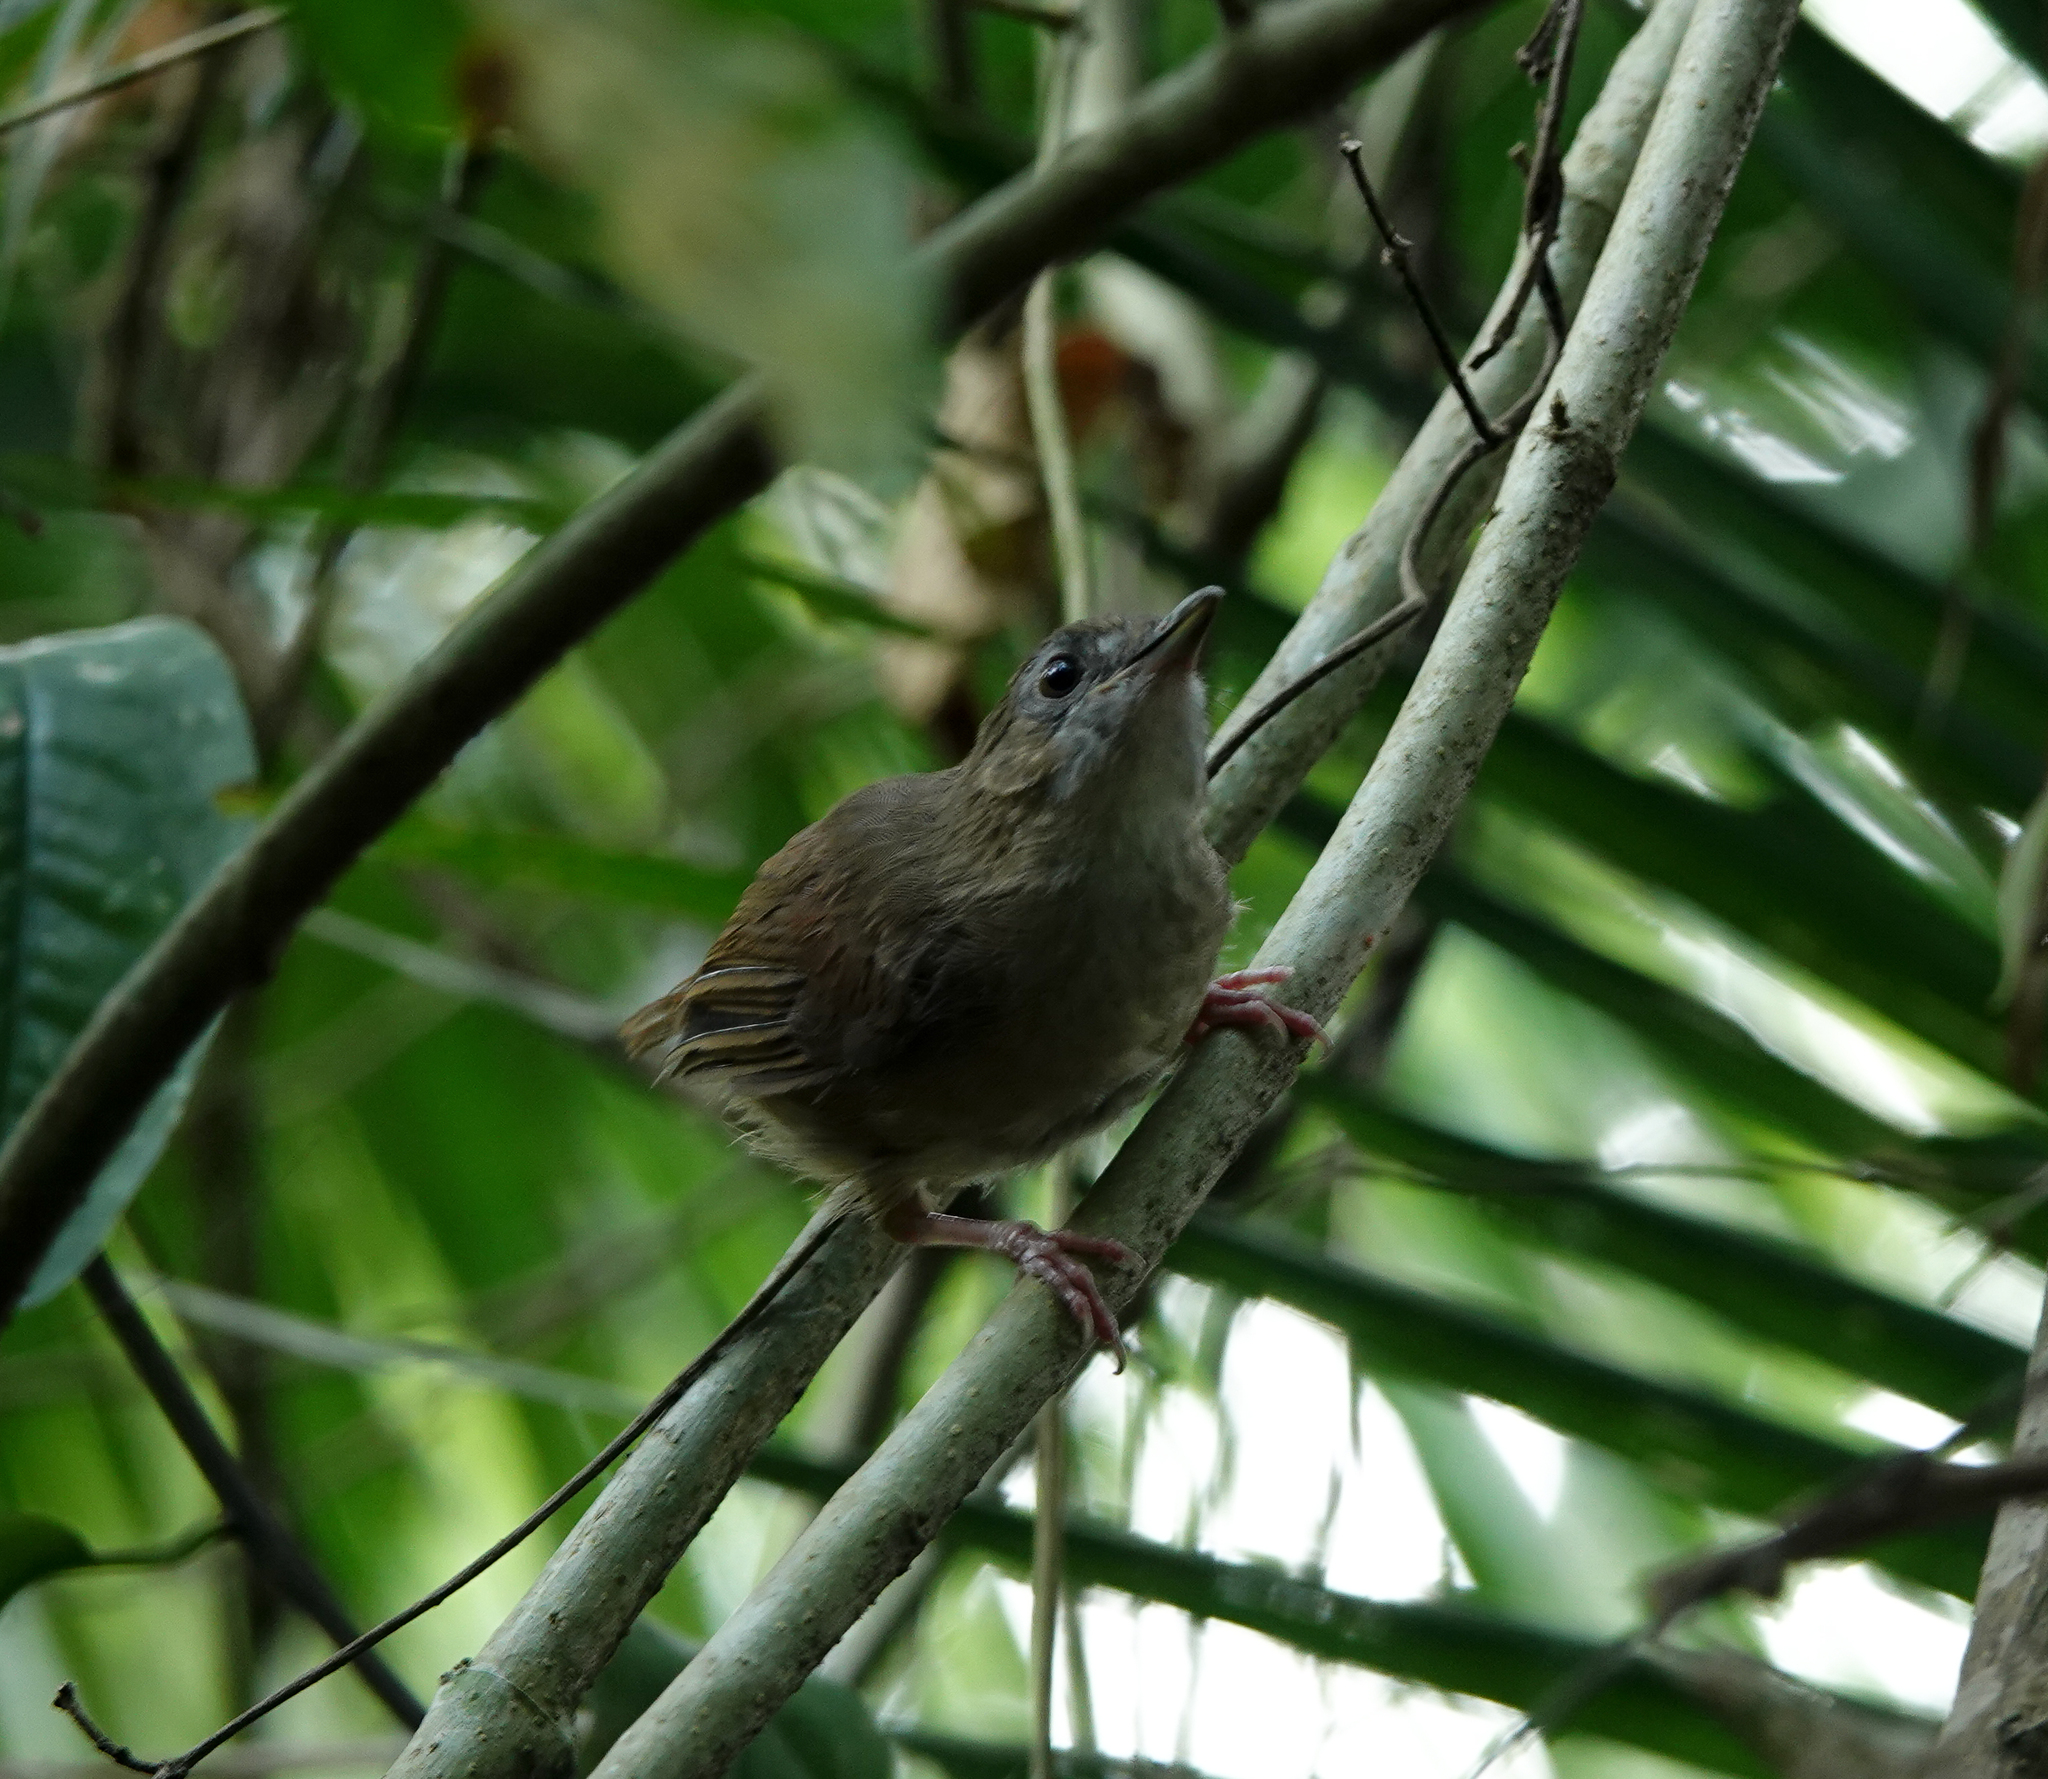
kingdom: Animalia
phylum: Chordata
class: Aves
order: Passeriformes
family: Pellorneidae
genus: Malacocincla
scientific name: Malacocincla abbotti
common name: Abbott's babbler
